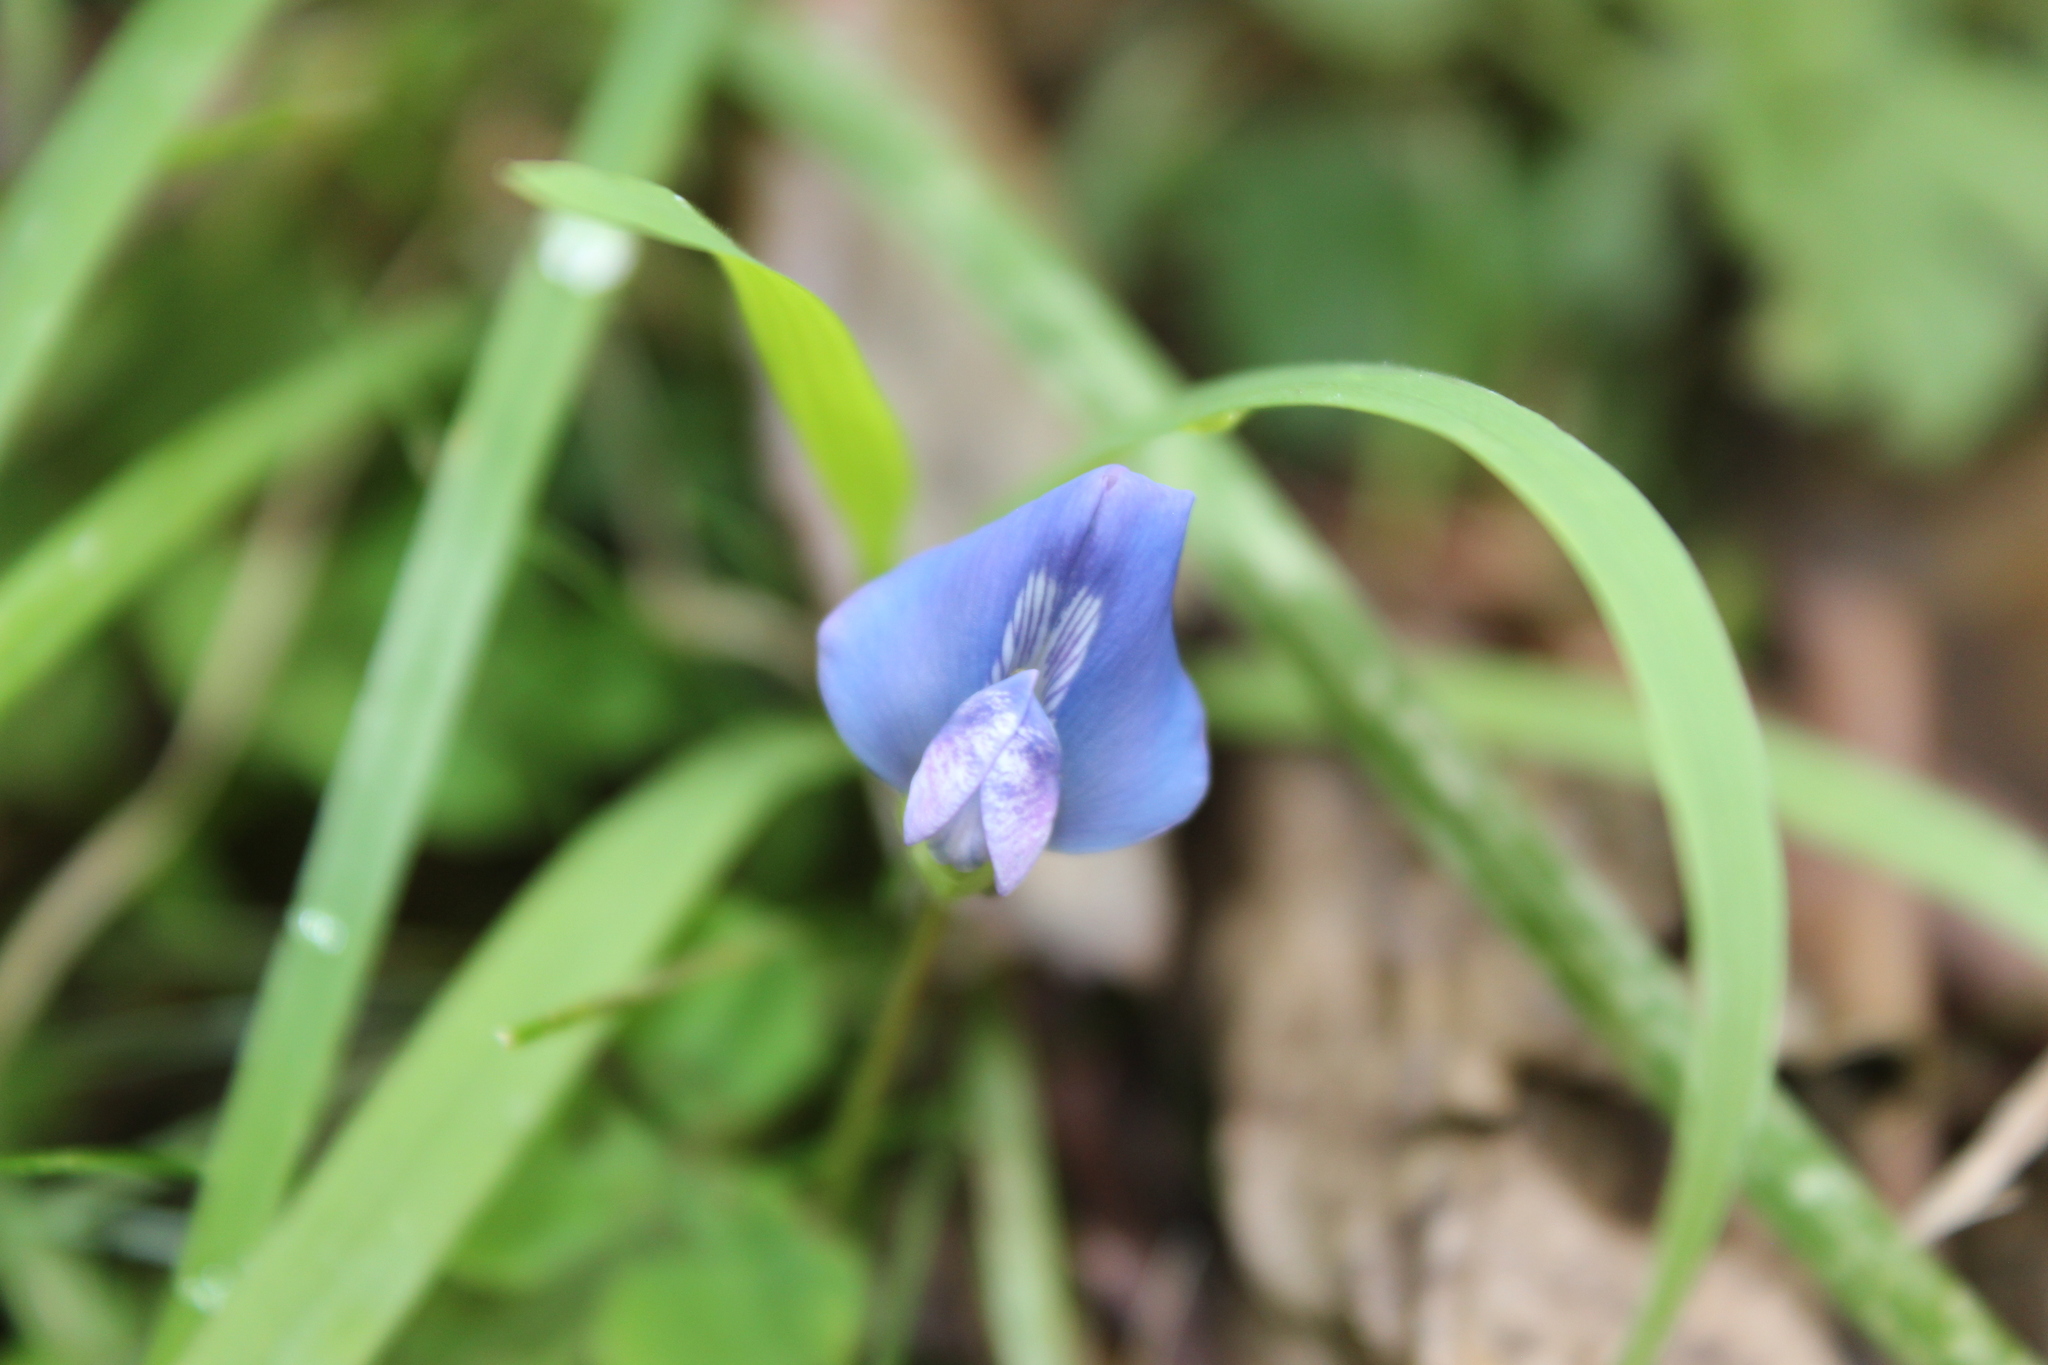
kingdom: Plantae
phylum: Tracheophyta
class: Magnoliopsida
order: Fabales
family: Fabaceae
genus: Parochetus
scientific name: Parochetus communis
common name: Blue oxalis
